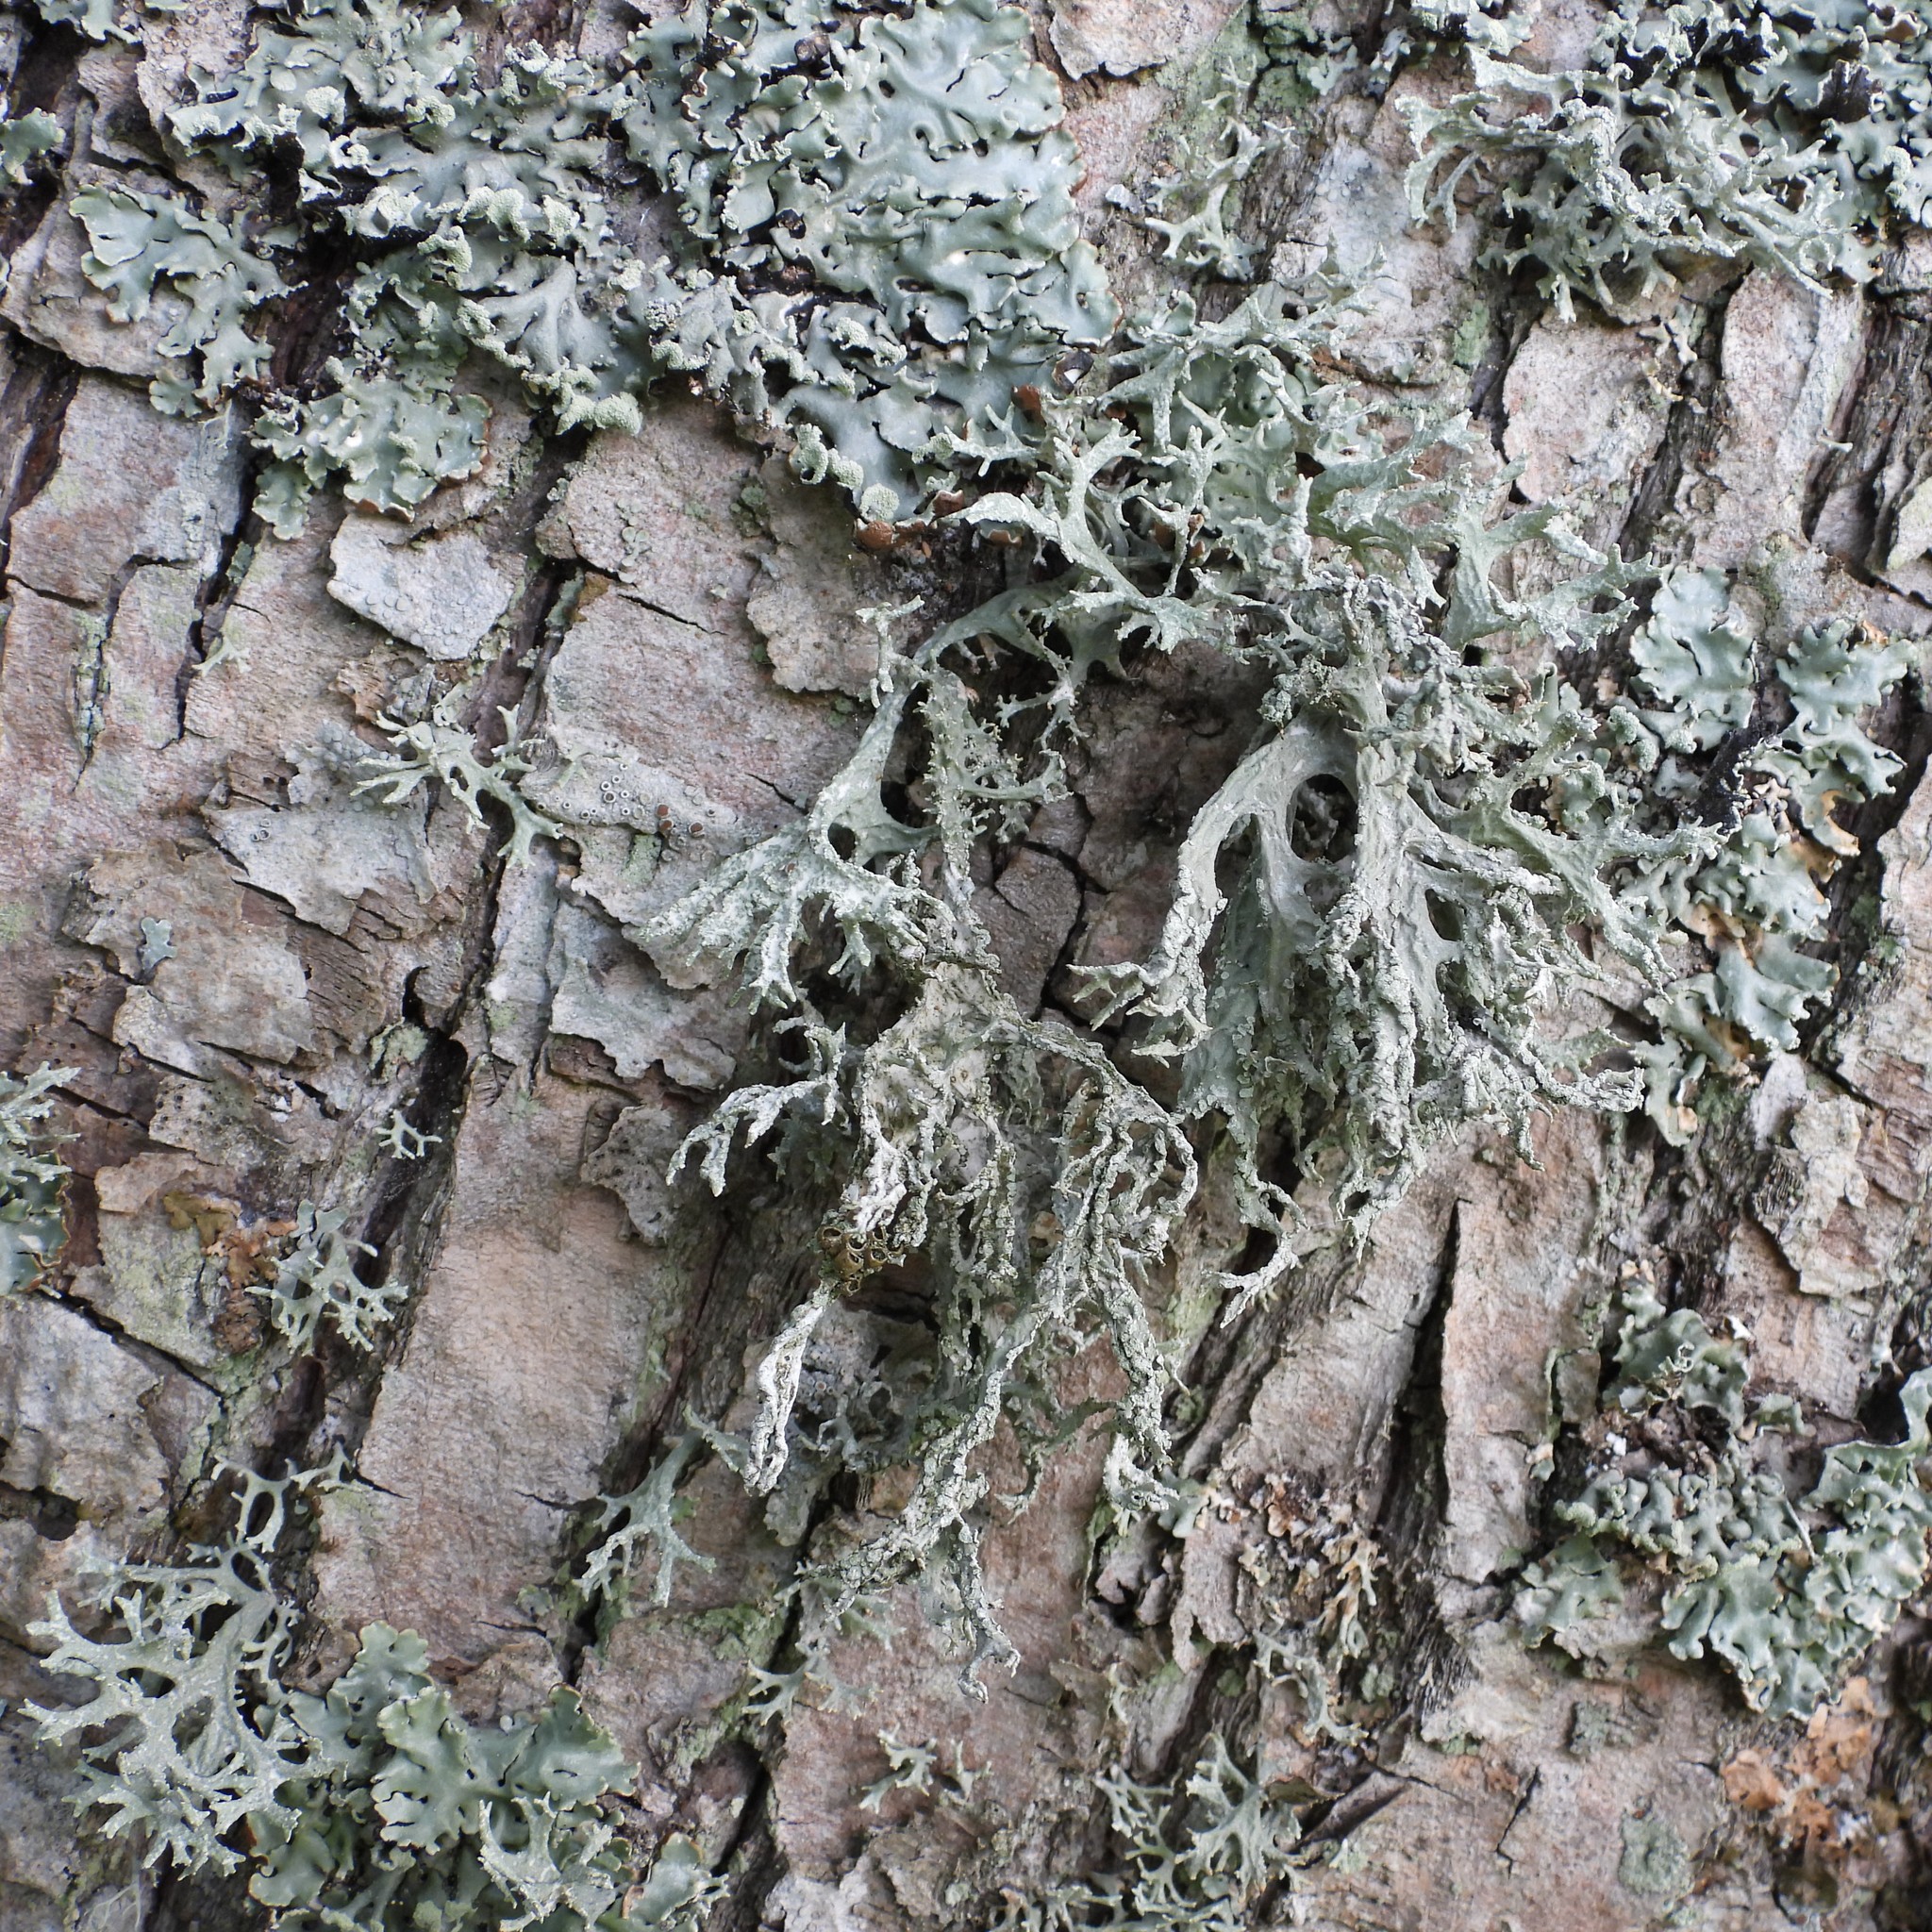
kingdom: Fungi
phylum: Ascomycota
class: Lecanoromycetes
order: Lecanorales
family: Parmeliaceae
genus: Evernia
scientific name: Evernia prunastri
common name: Oak moss
